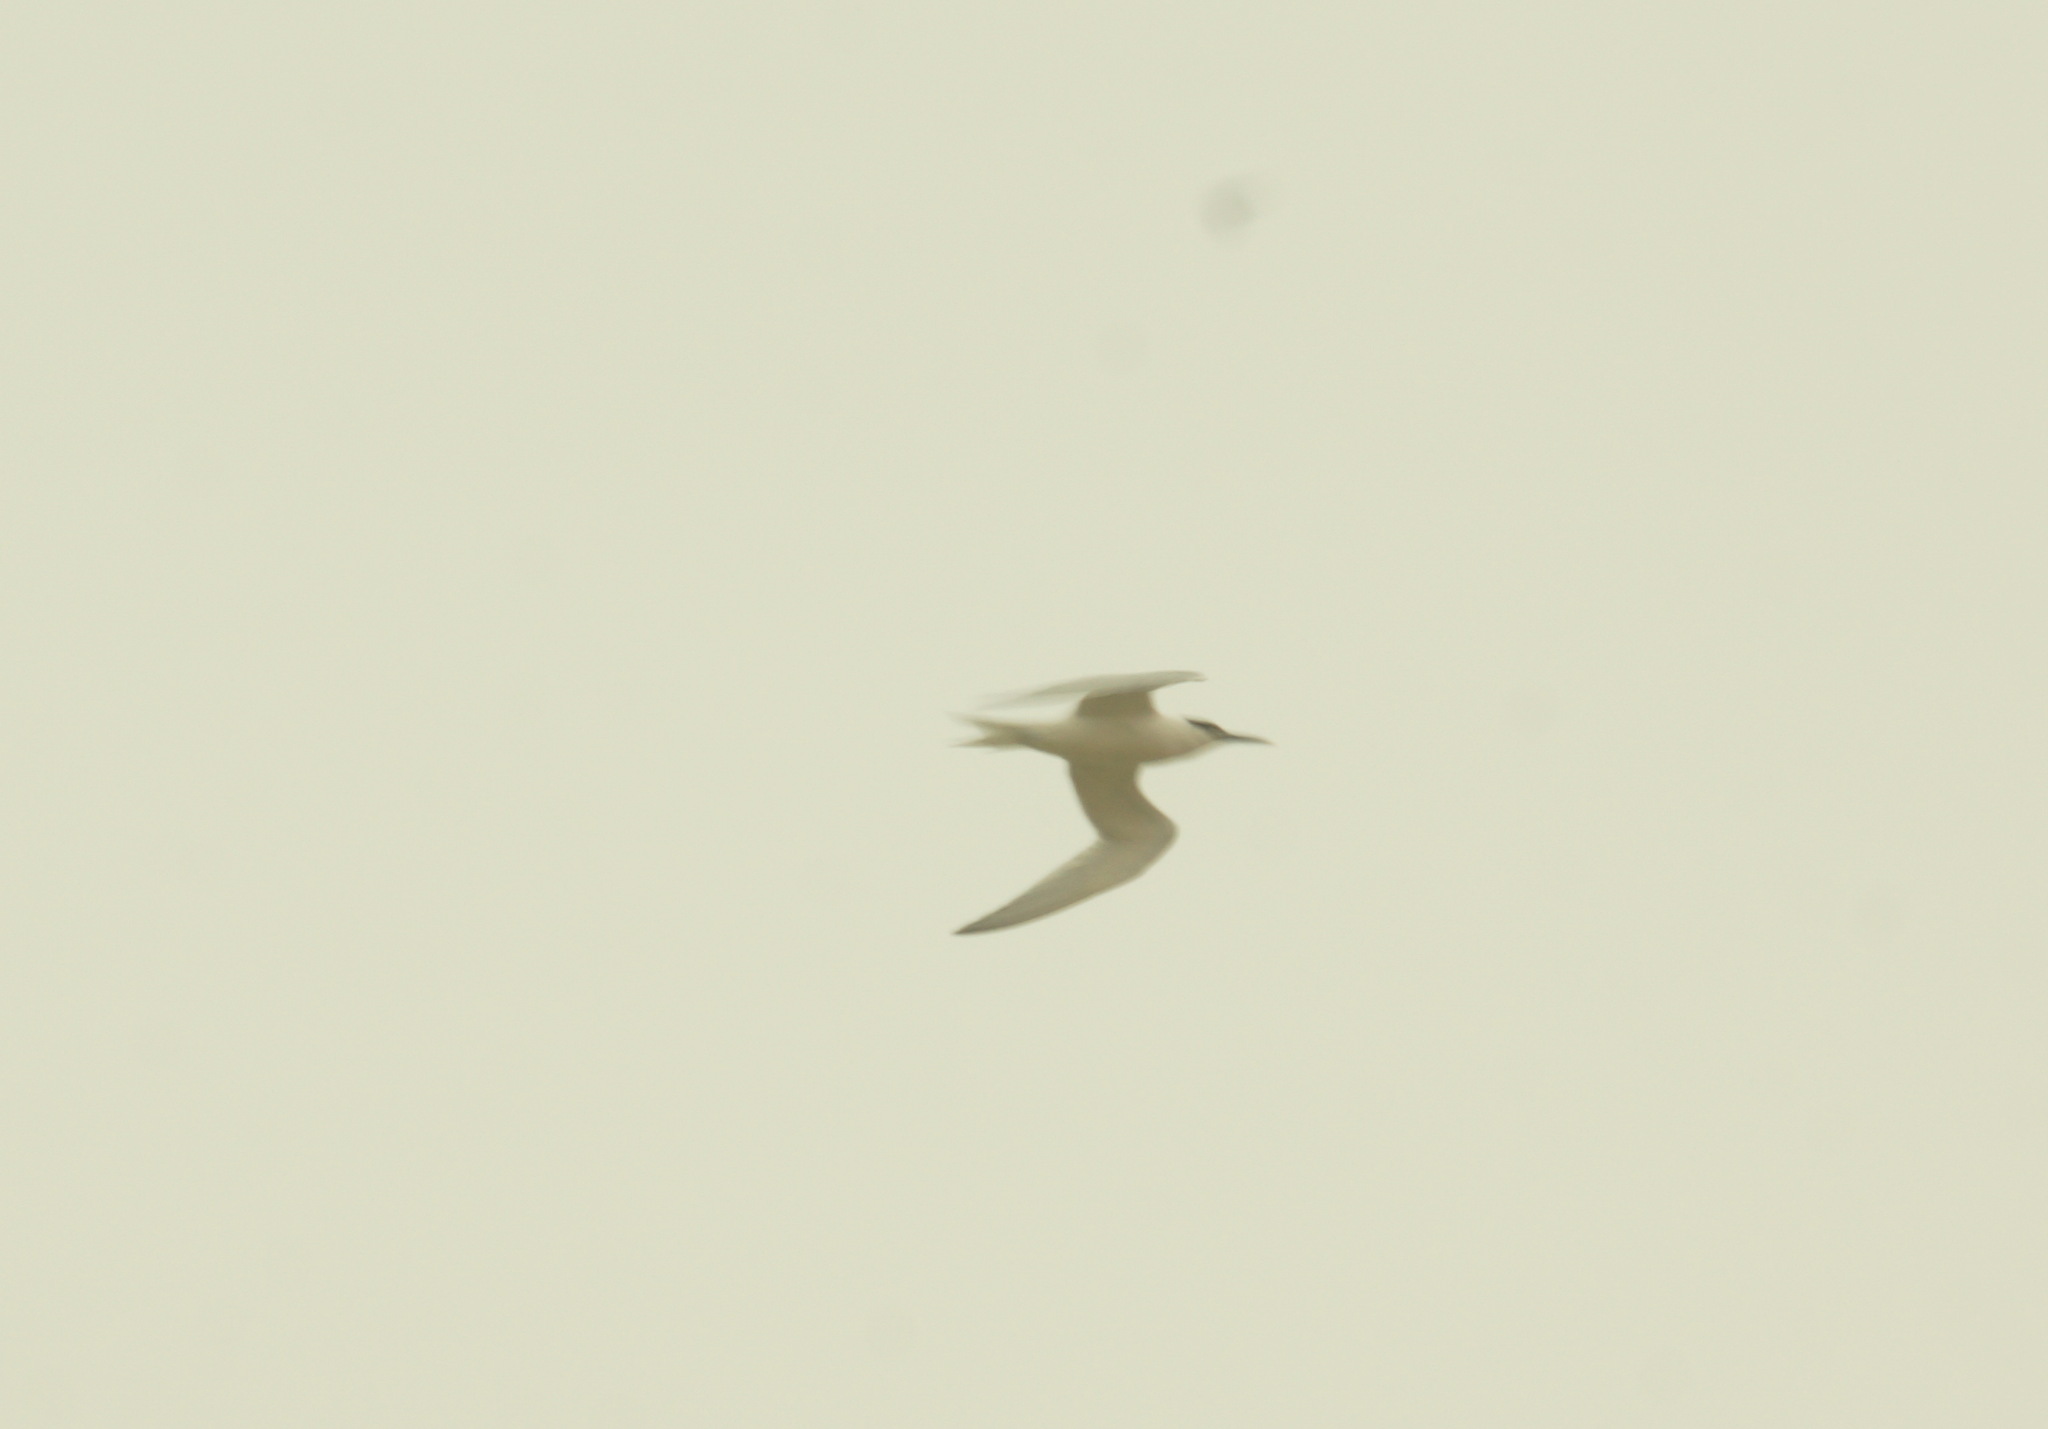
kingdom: Animalia
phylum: Chordata
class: Aves
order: Charadriiformes
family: Laridae
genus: Thalasseus
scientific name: Thalasseus sandvicensis
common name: Sandwich tern
